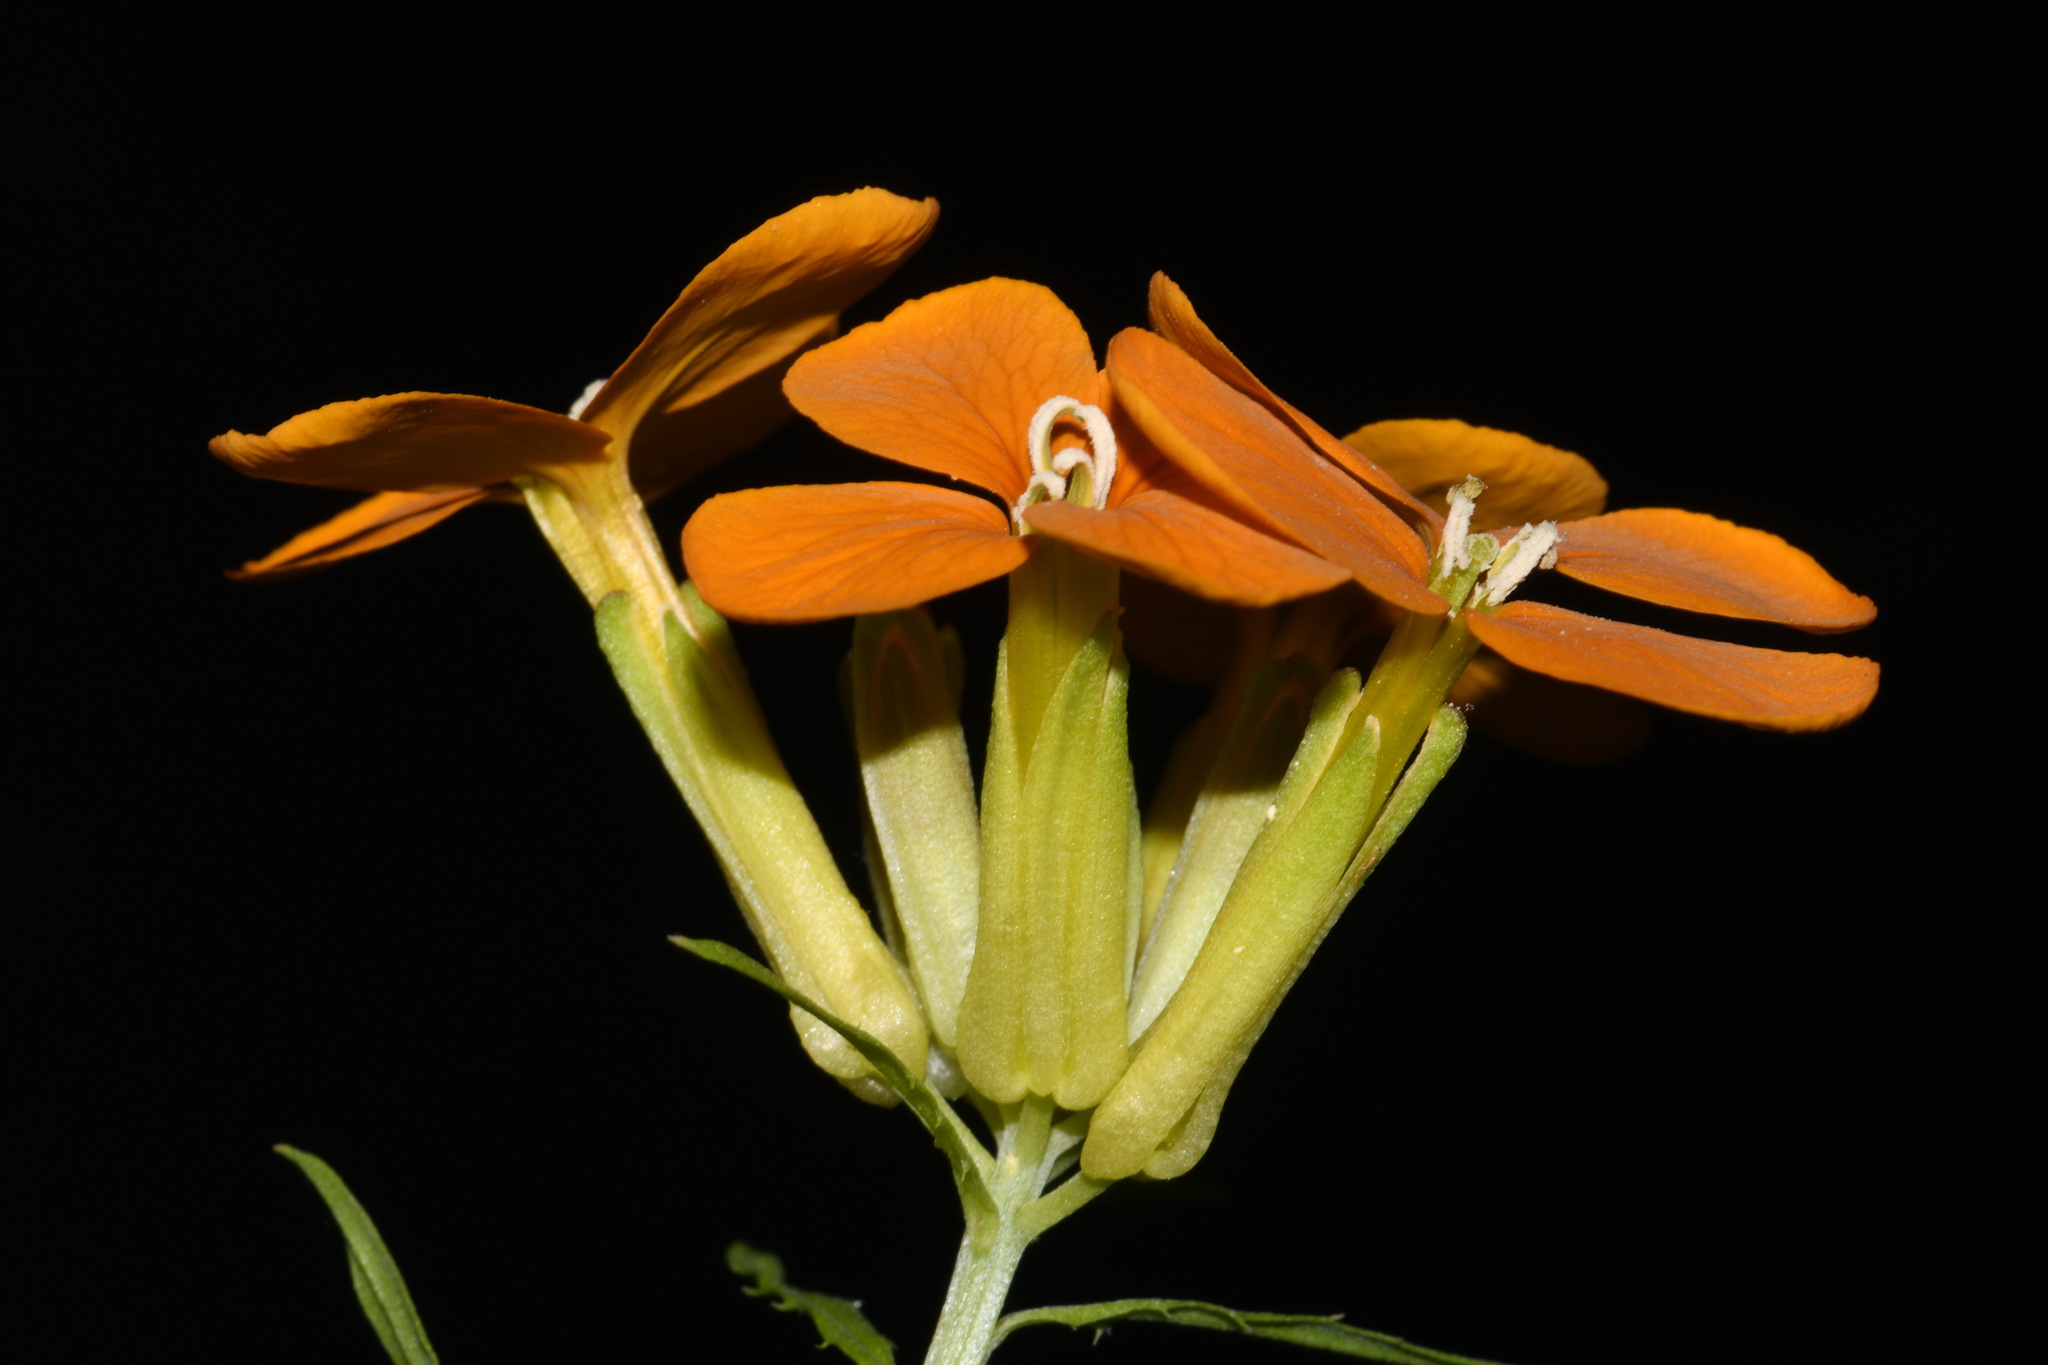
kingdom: Plantae
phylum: Tracheophyta
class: Magnoliopsida
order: Brassicales
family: Brassicaceae
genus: Erysimum
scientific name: Erysimum capitatum
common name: Western wallflower
